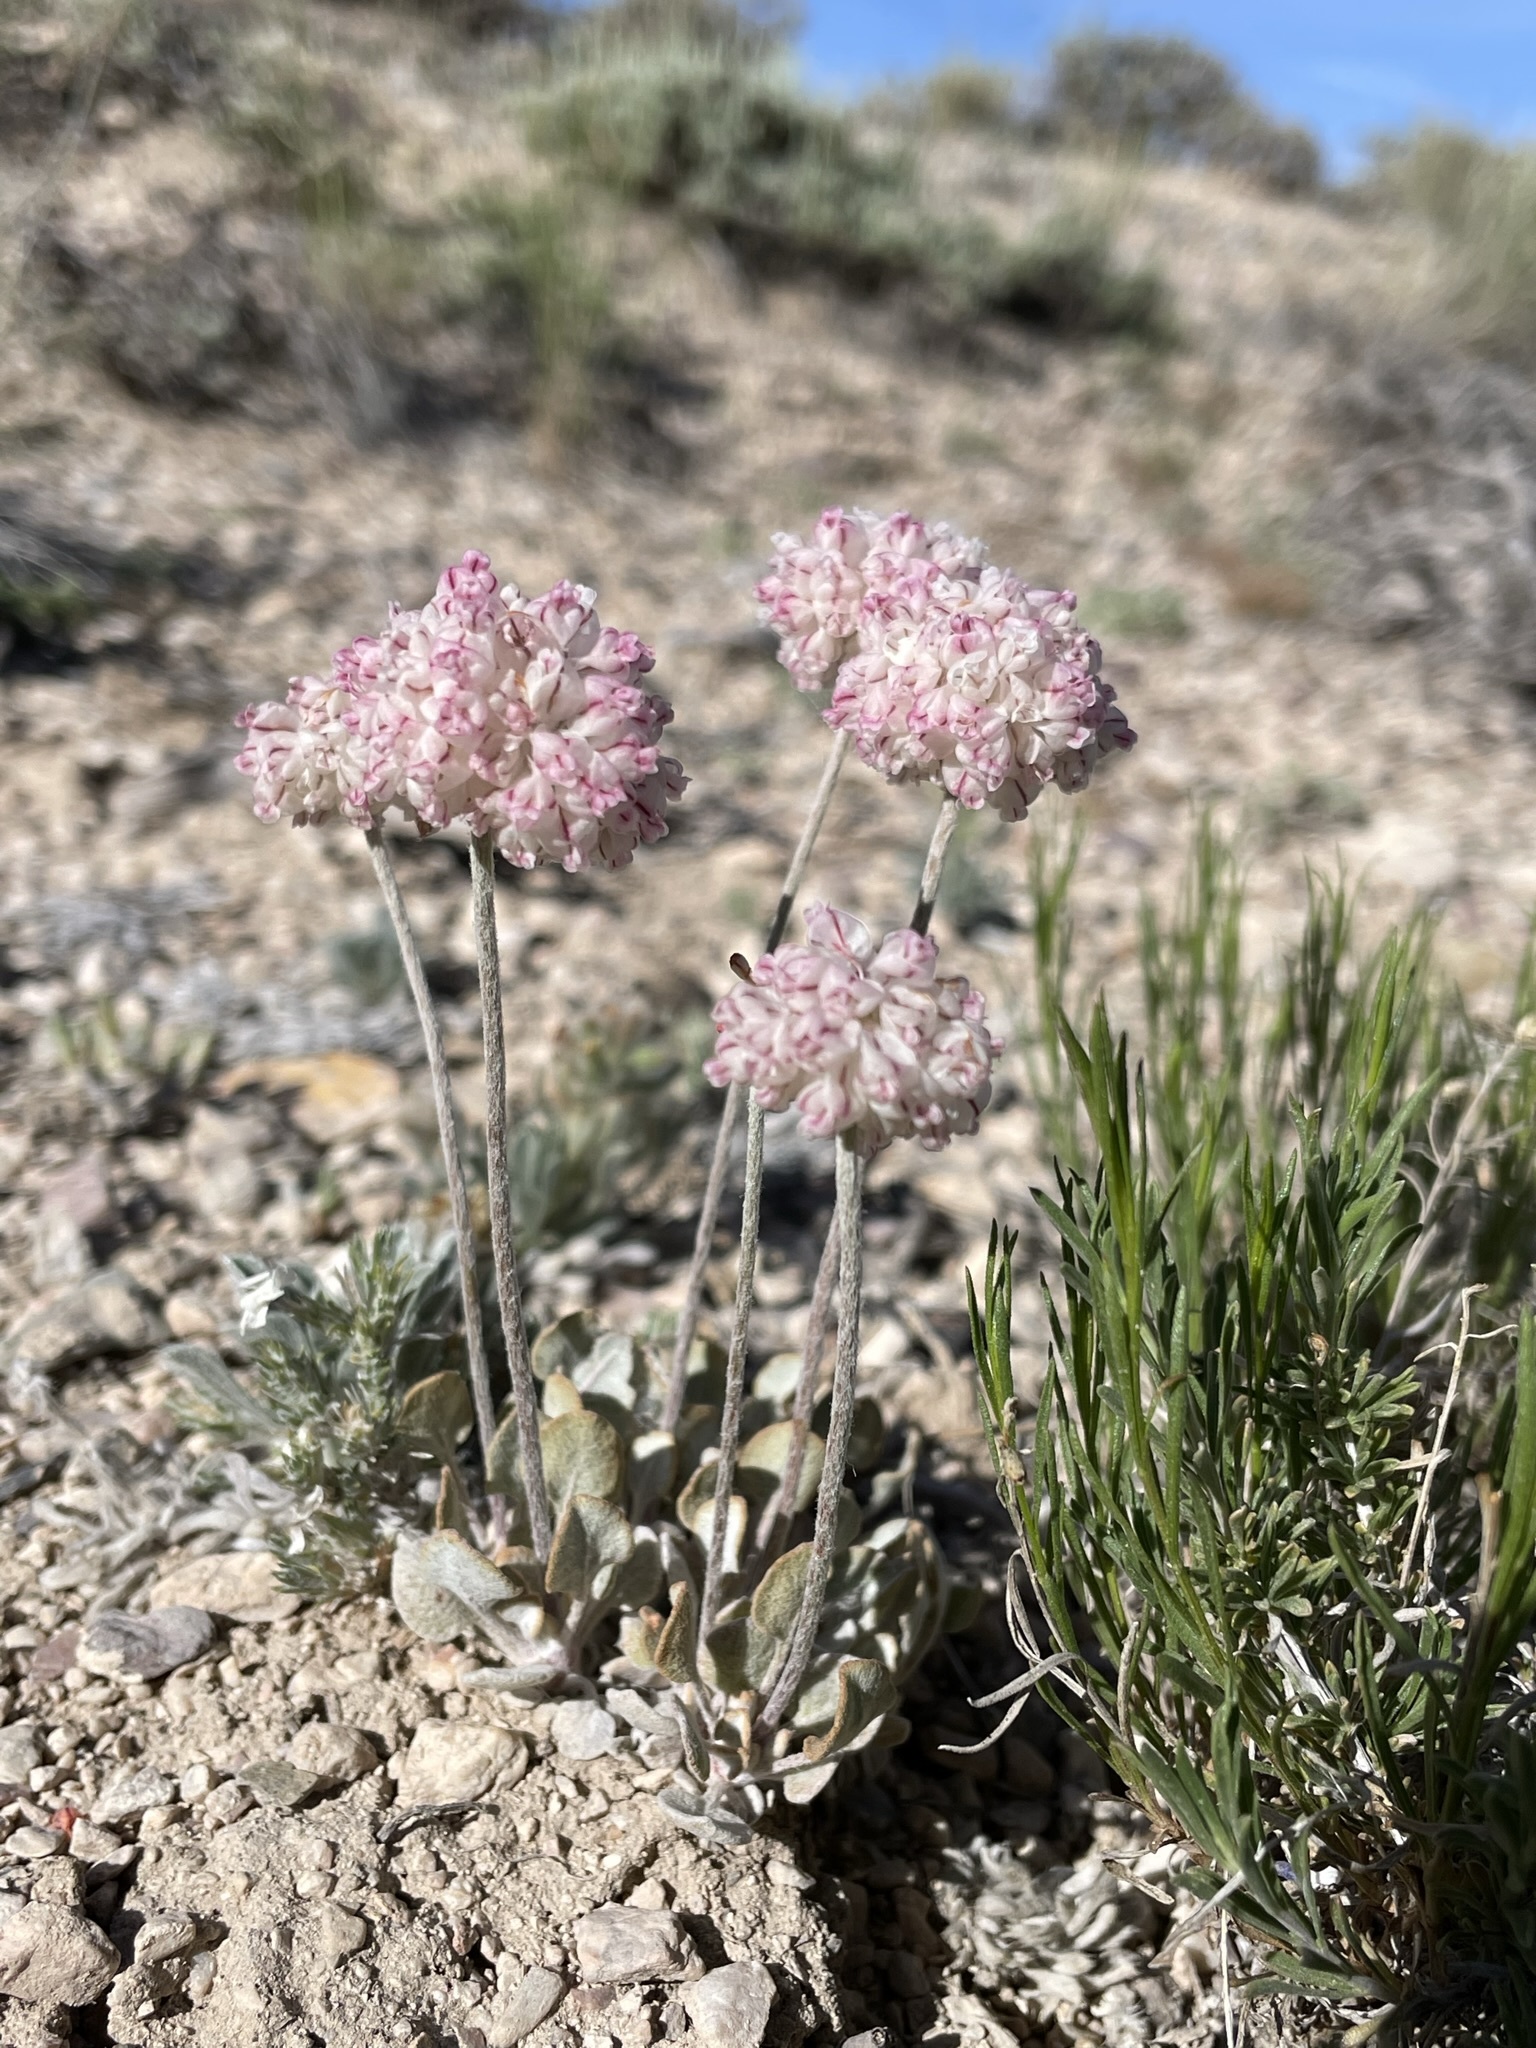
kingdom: Plantae
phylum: Tracheophyta
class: Magnoliopsida
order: Caryophyllales
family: Polygonaceae
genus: Eriogonum
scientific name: Eriogonum ovalifolium
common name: Cushion buckwheat
